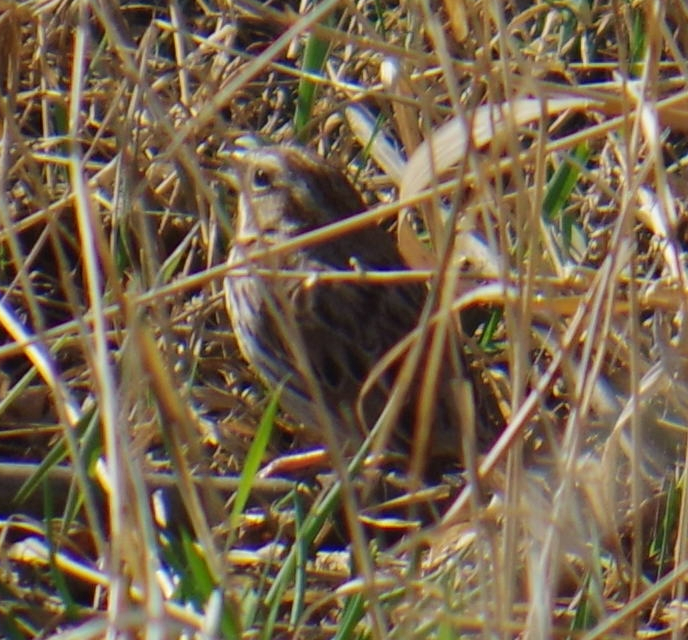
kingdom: Animalia
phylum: Chordata
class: Aves
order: Passeriformes
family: Passerellidae
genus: Melospiza
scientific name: Melospiza melodia
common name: Song sparrow
